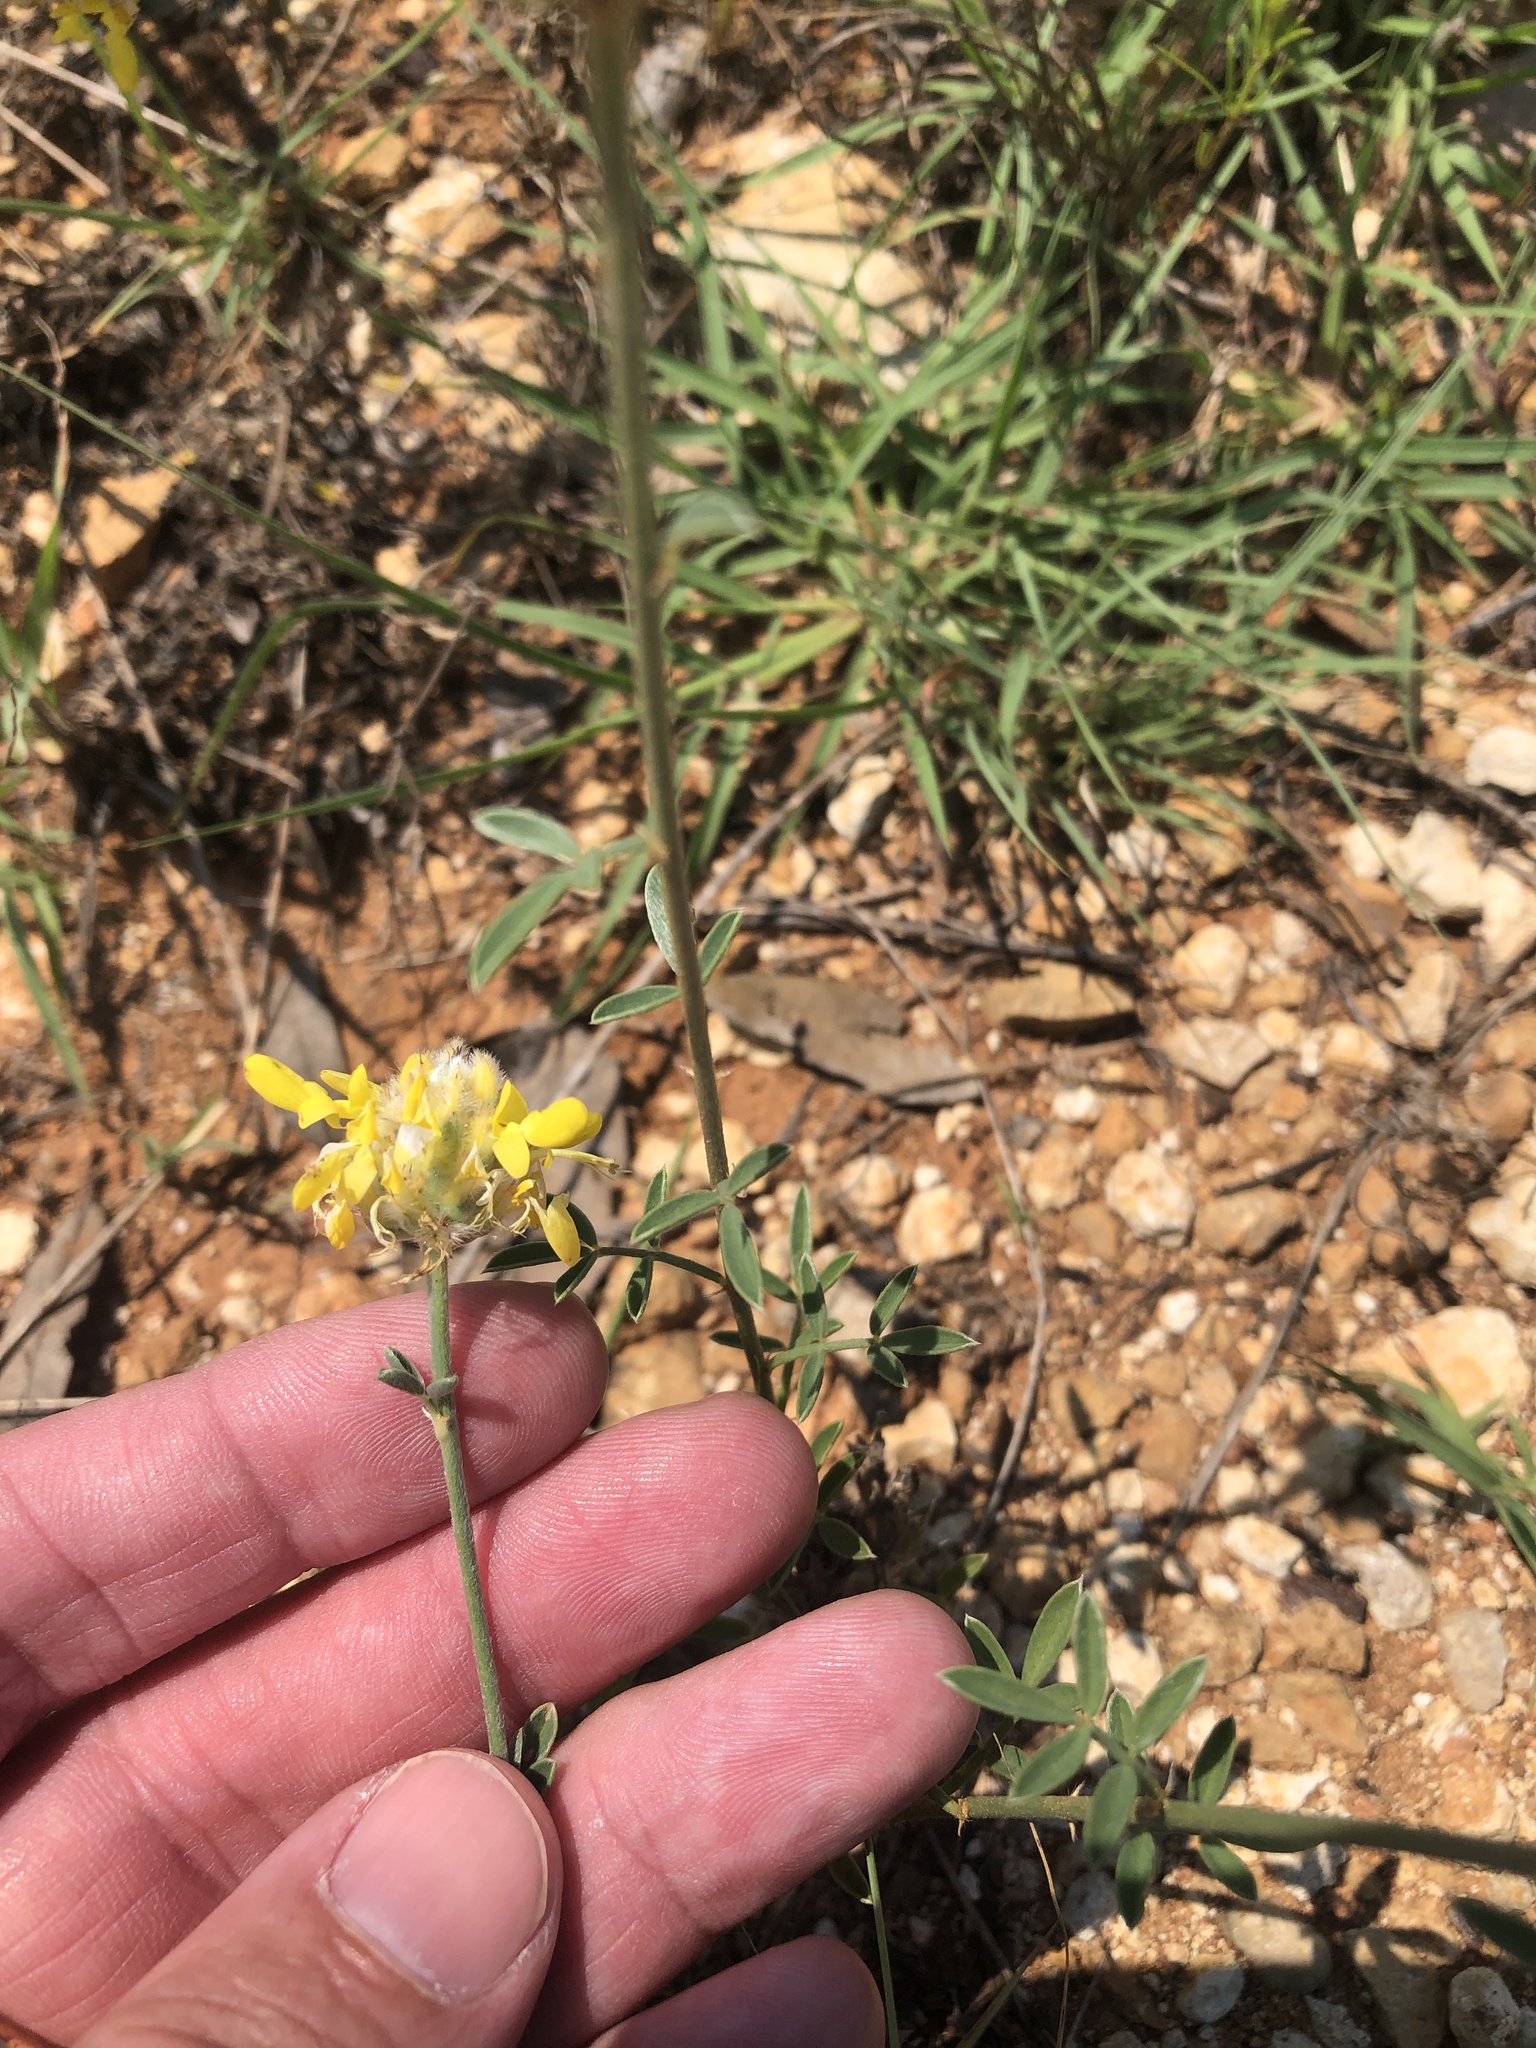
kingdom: Plantae
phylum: Tracheophyta
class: Magnoliopsida
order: Fabales
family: Fabaceae
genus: Dalea
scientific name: Dalea aurea
